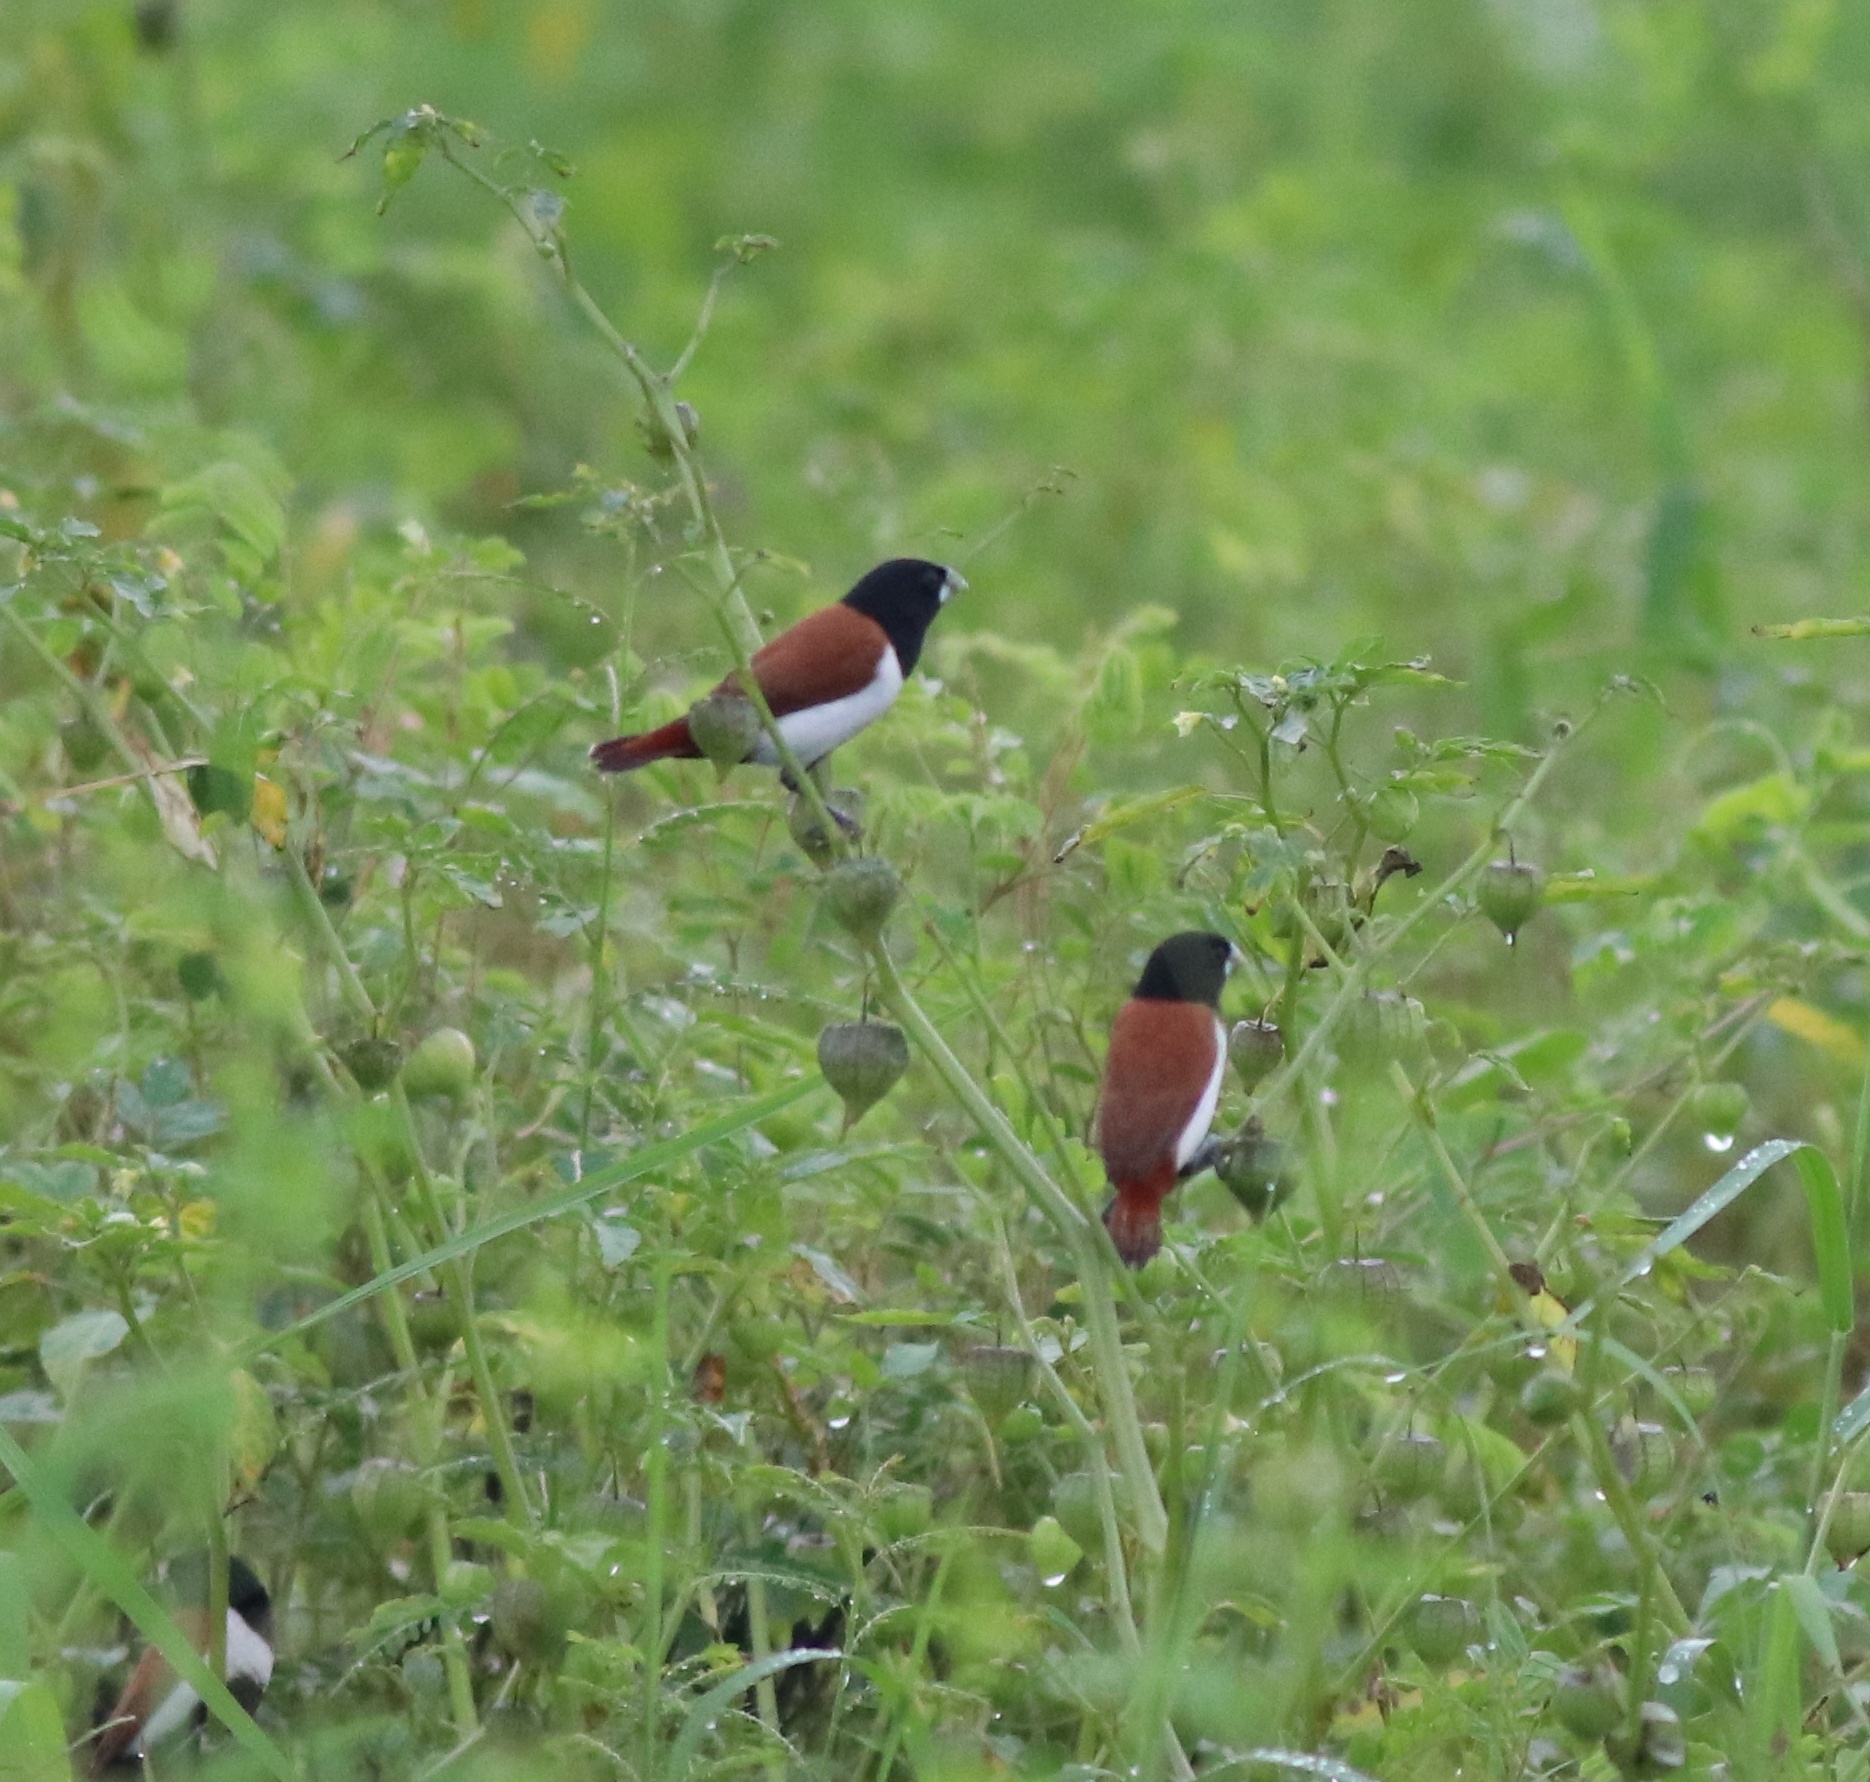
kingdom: Animalia
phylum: Chordata
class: Aves
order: Passeriformes
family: Estrildidae
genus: Lonchura
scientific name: Lonchura malacca
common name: Tricolored munia
